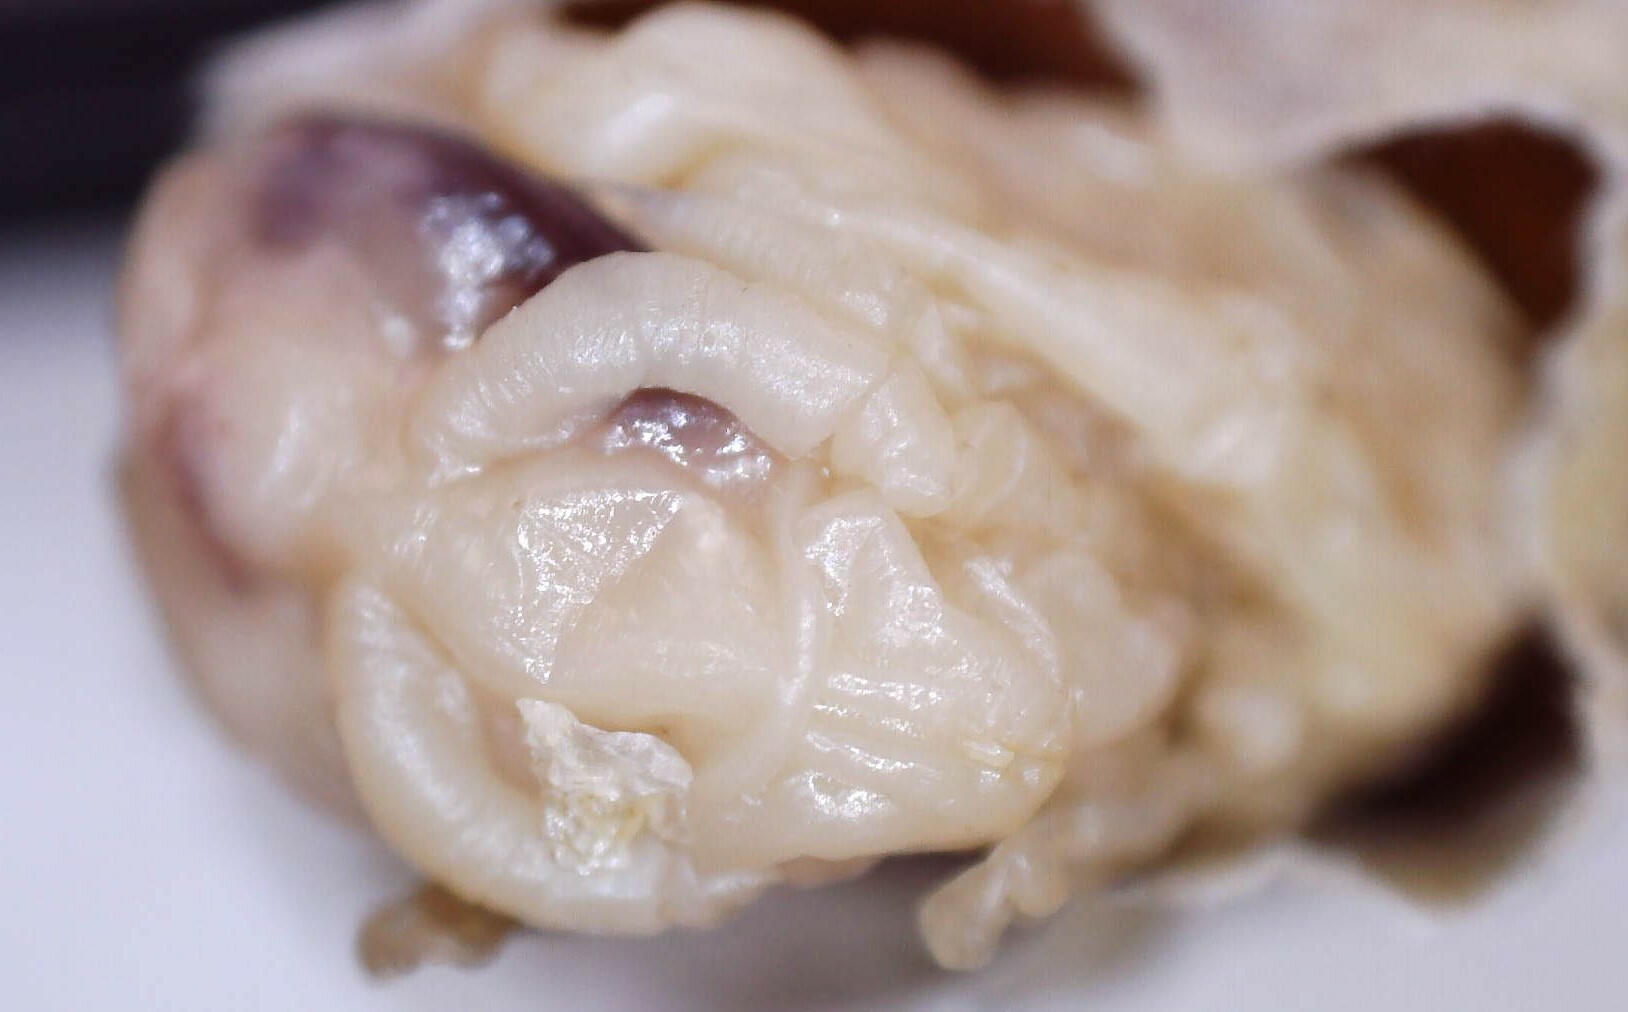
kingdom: Animalia
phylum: Arthropoda
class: Insecta
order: Hymenoptera
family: Vespidae
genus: Dolichovespula
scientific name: Dolichovespula maculata
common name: Bald-faced hornet
